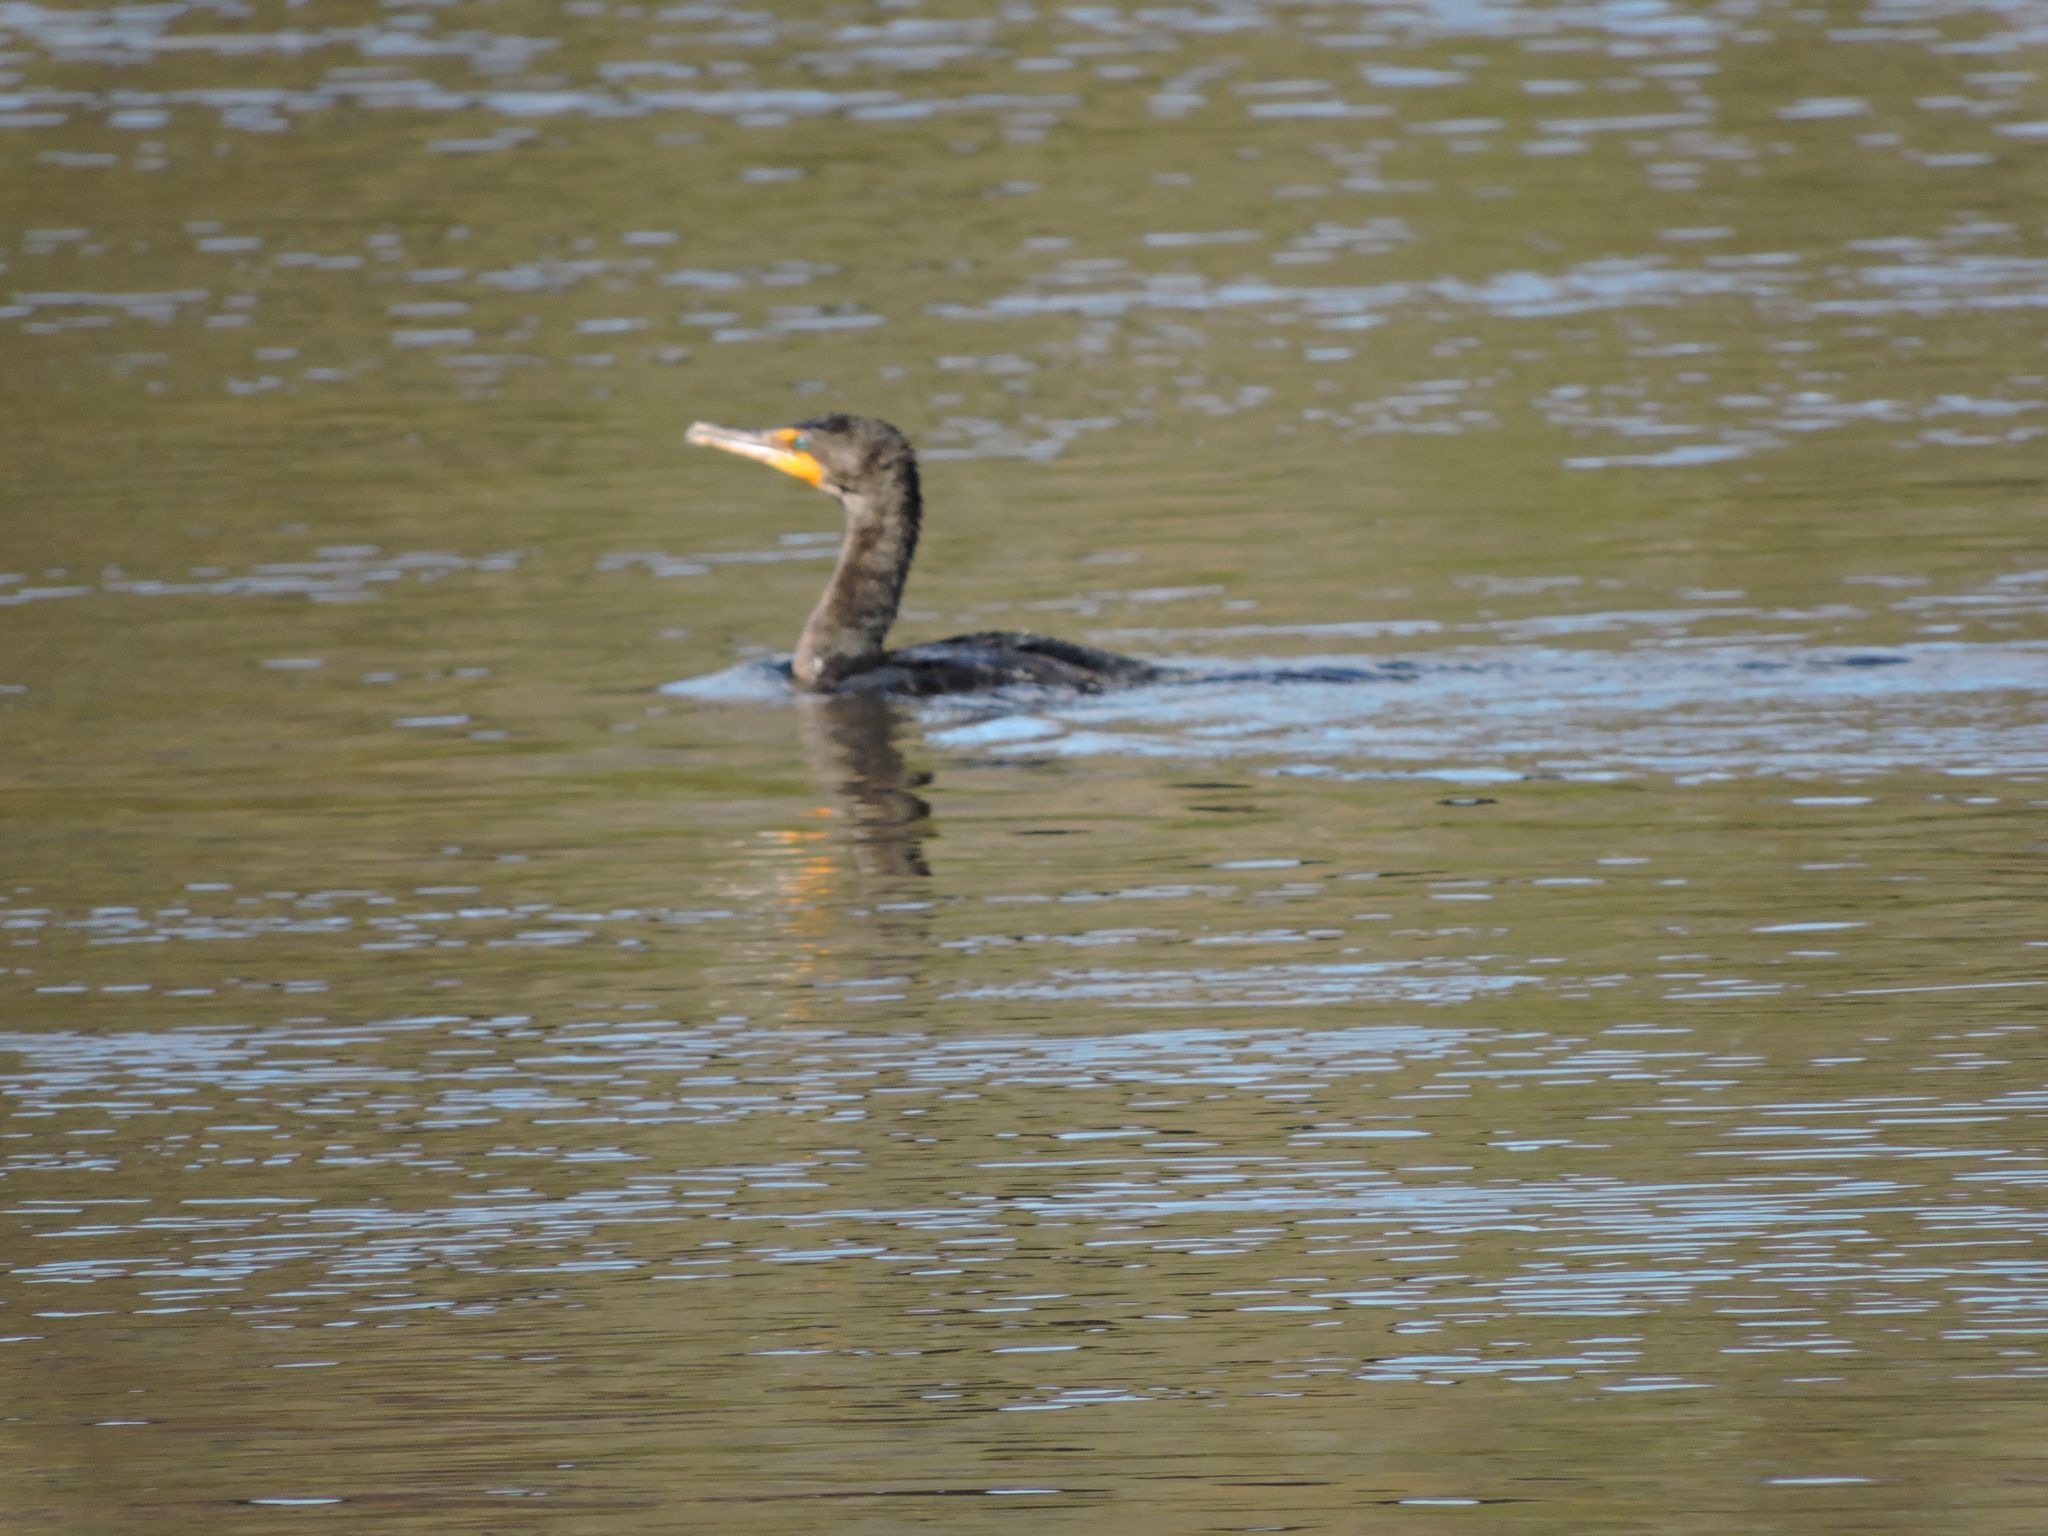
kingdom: Animalia
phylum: Chordata
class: Aves
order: Suliformes
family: Phalacrocoracidae
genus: Phalacrocorax
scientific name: Phalacrocorax auritus
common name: Double-crested cormorant
